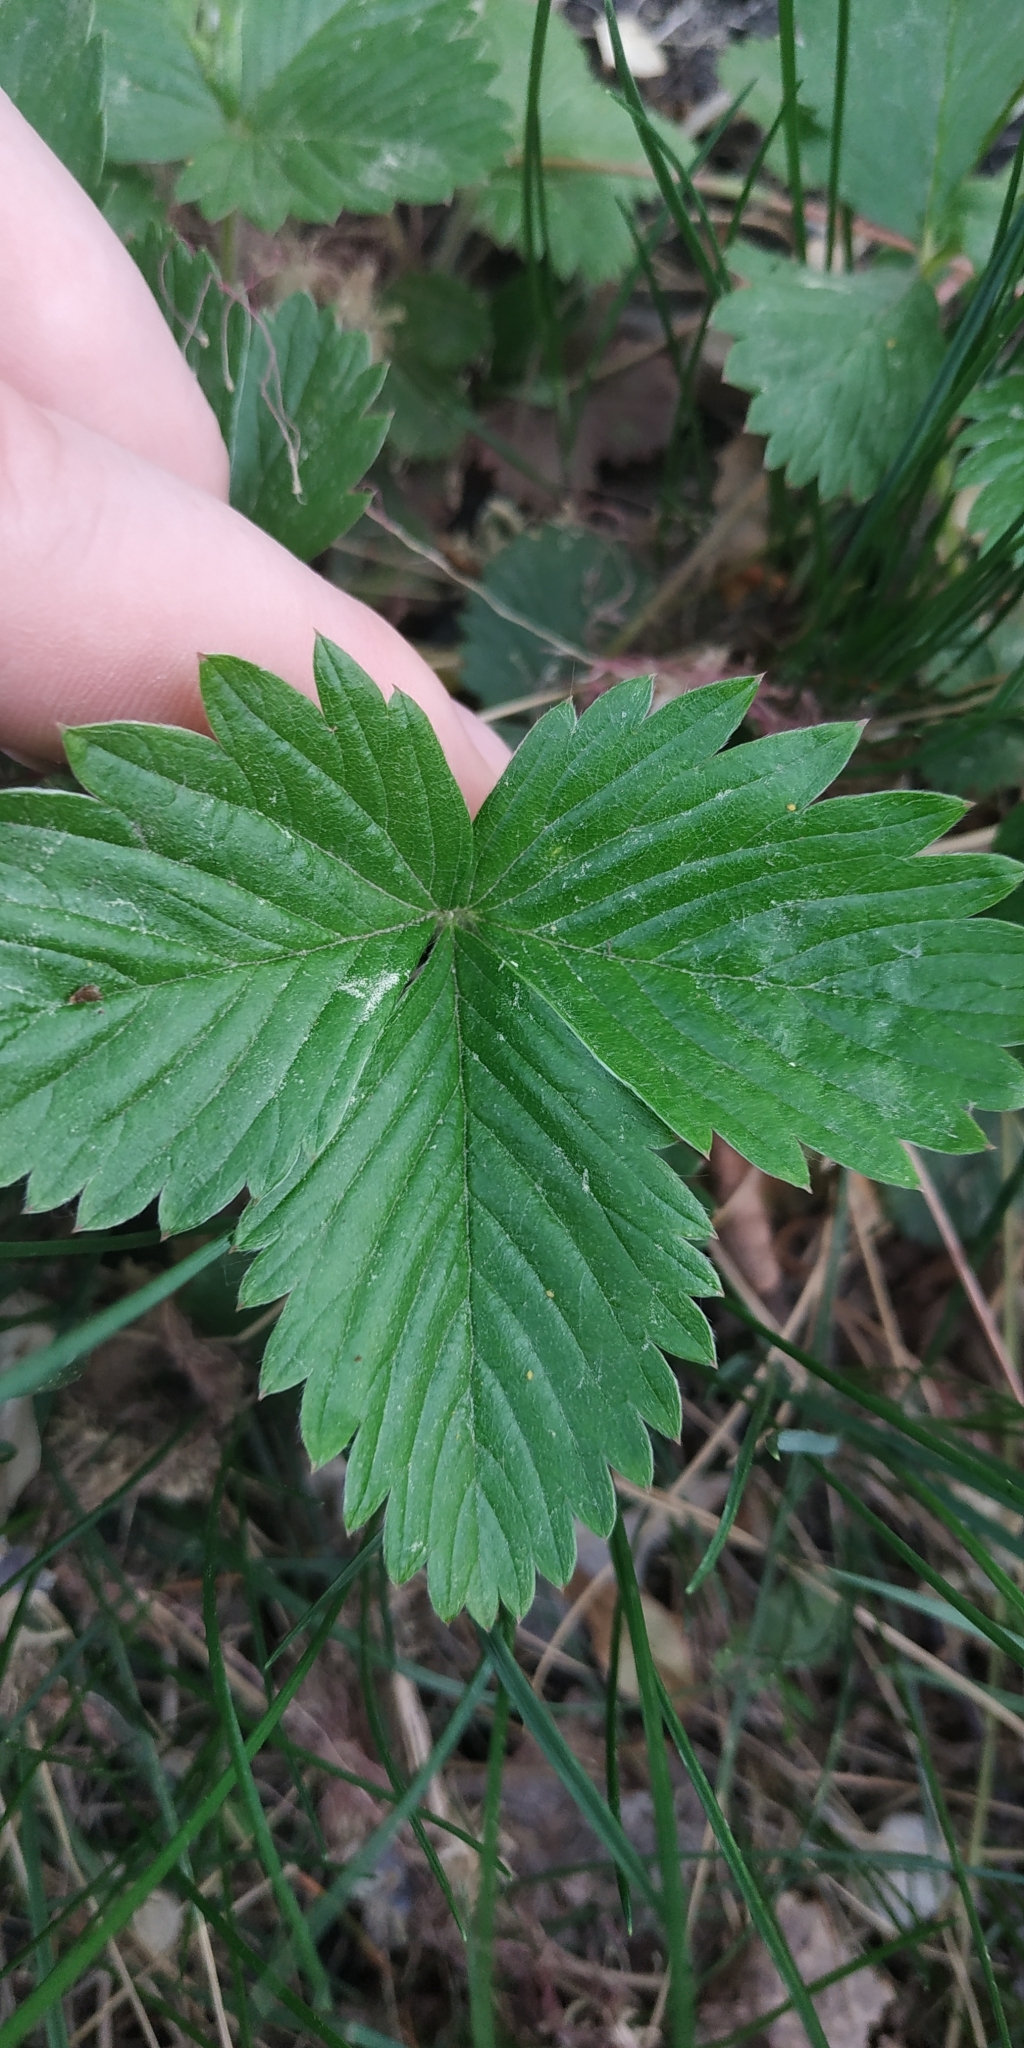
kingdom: Plantae
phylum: Tracheophyta
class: Magnoliopsida
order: Rosales
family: Rosaceae
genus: Fragaria
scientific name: Fragaria vesca
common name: Wild strawberry
